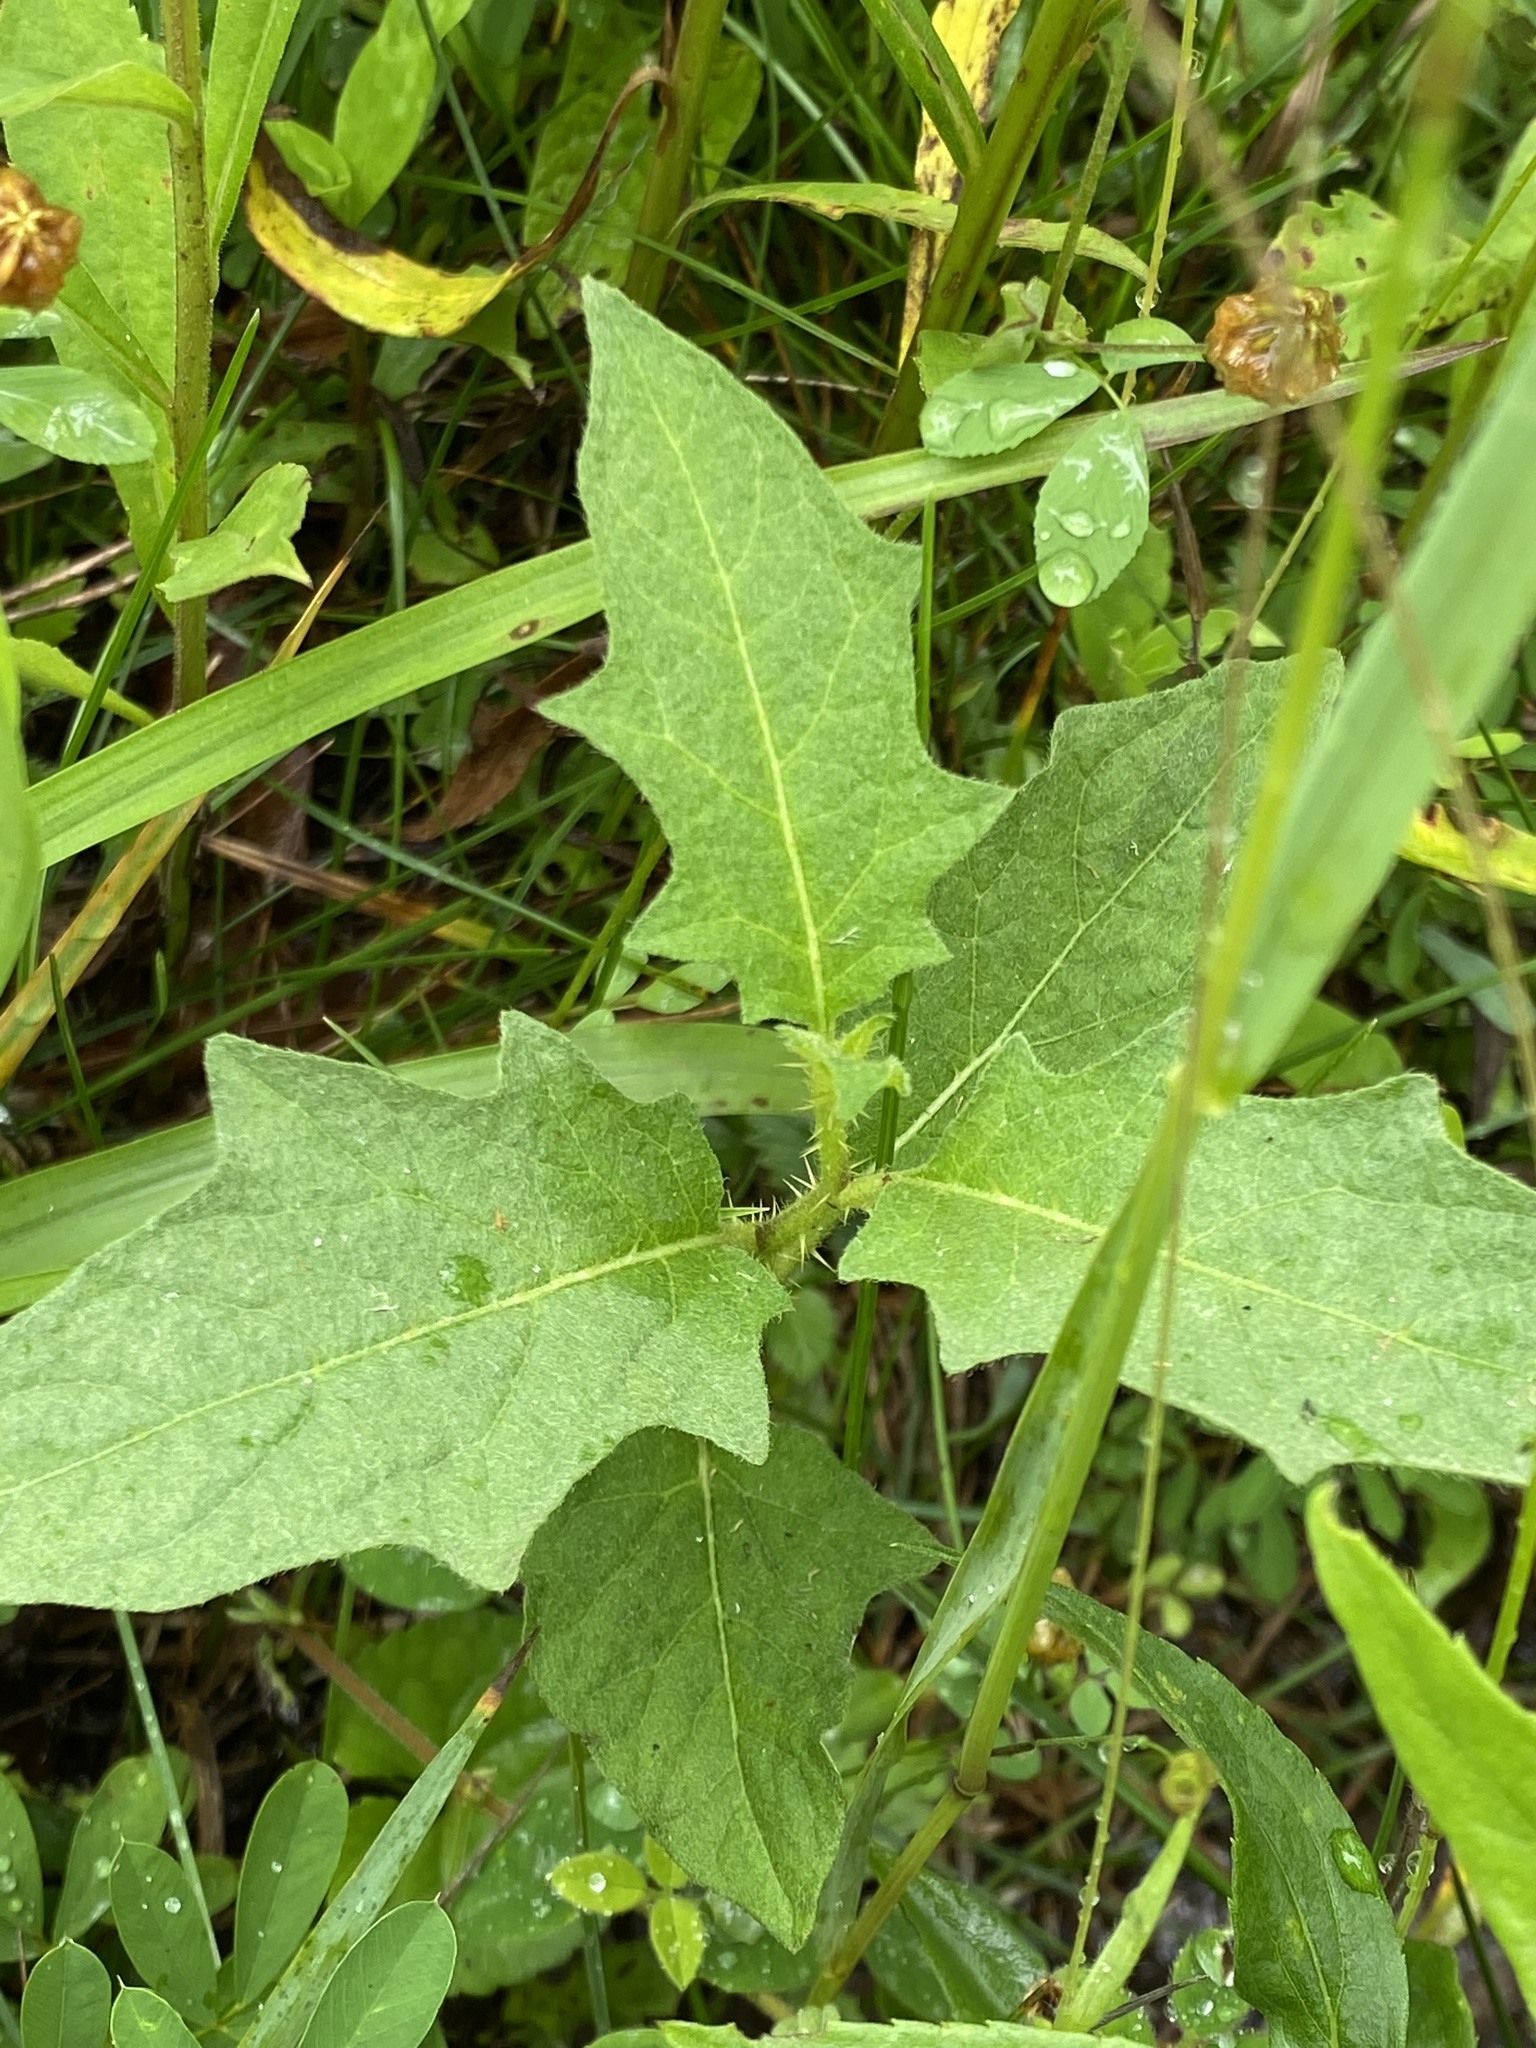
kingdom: Plantae
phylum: Tracheophyta
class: Magnoliopsida
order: Solanales
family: Solanaceae
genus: Solanum
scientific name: Solanum carolinense
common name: Horse-nettle
